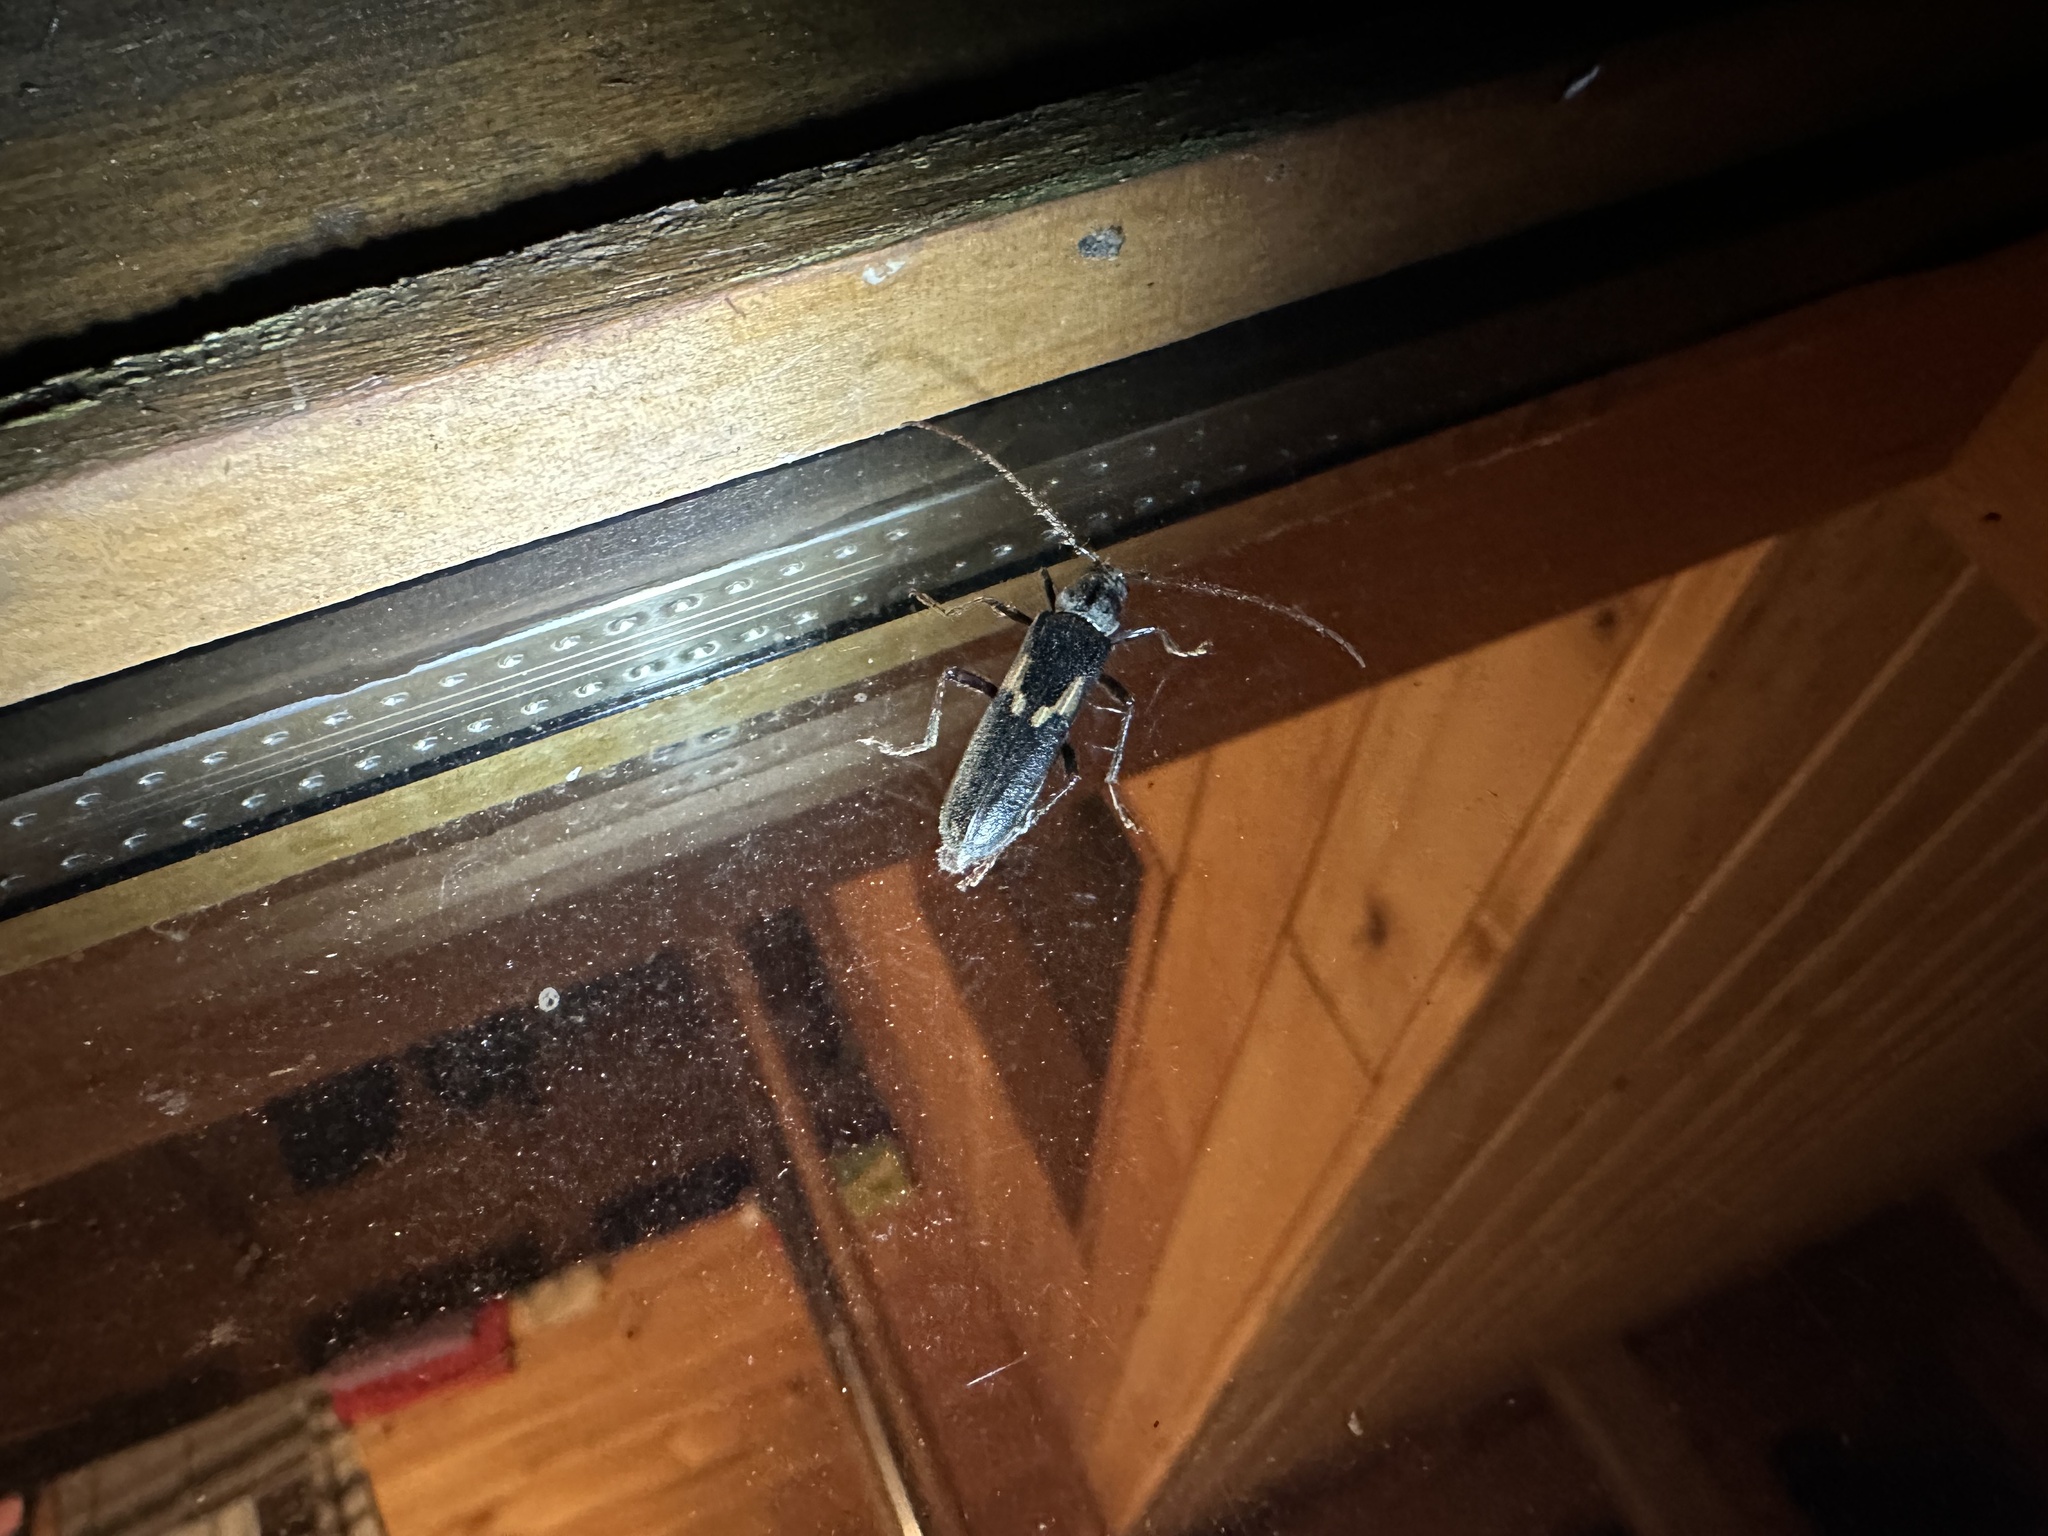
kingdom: Animalia
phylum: Arthropoda
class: Insecta
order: Coleoptera
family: Cerambycidae
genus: Grammicosum
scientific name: Grammicosum flavofasciatum
